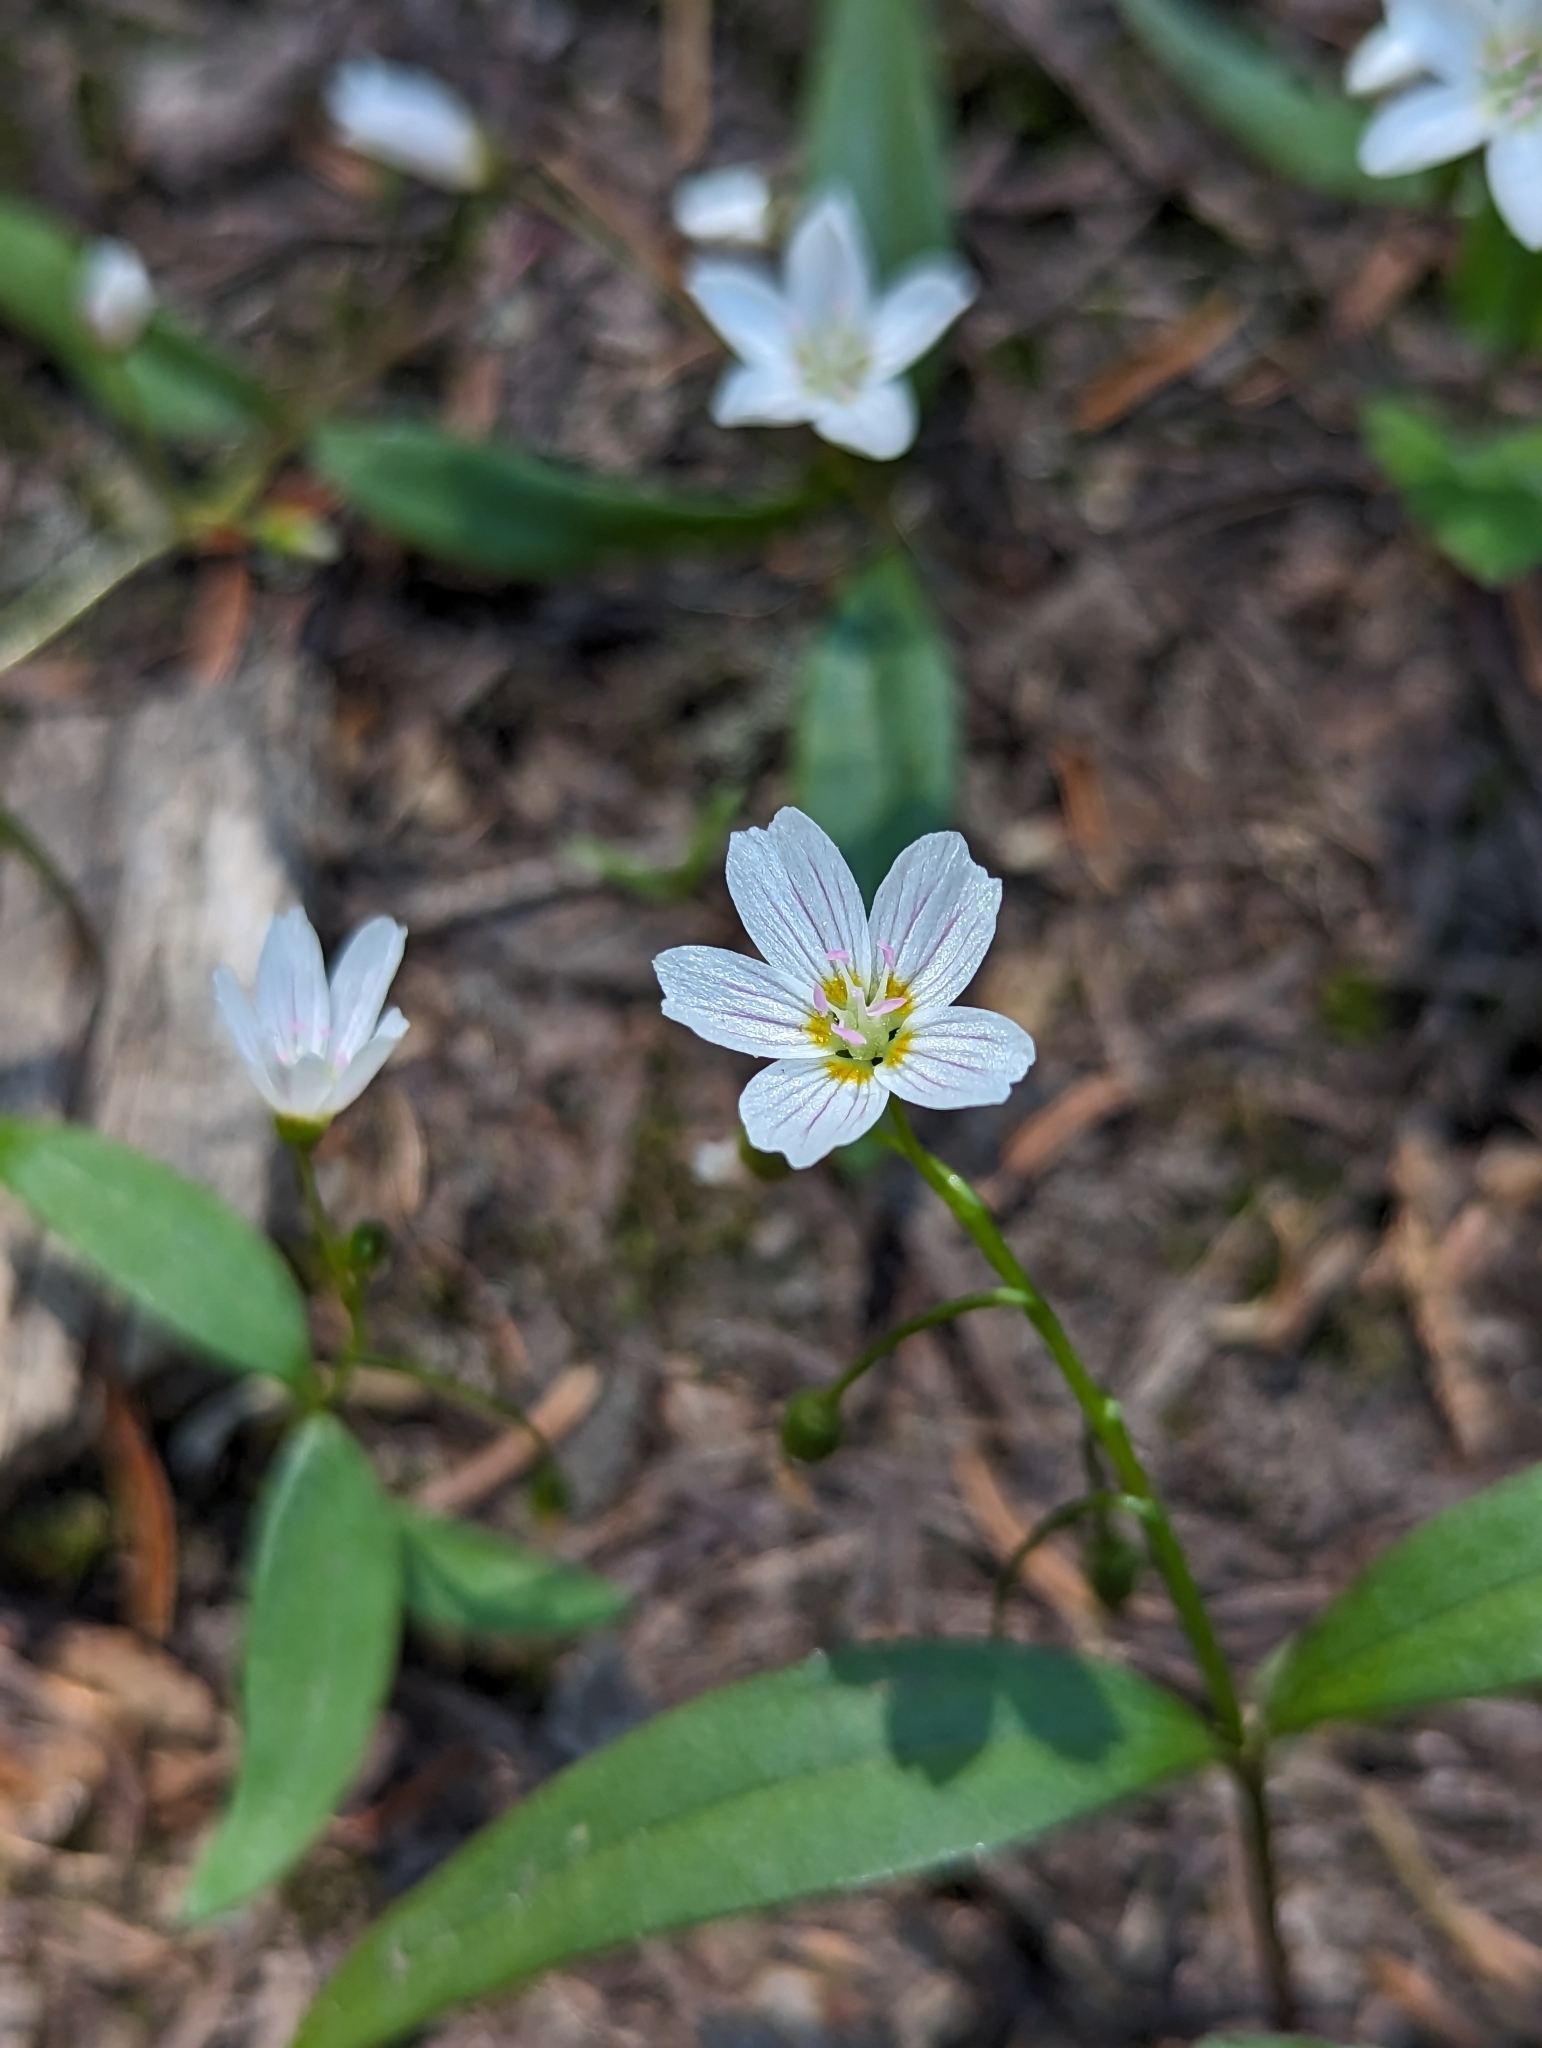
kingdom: Plantae
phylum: Tracheophyta
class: Magnoliopsida
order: Caryophyllales
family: Montiaceae
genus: Claytonia
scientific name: Claytonia lanceolata
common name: Western spring-beauty
